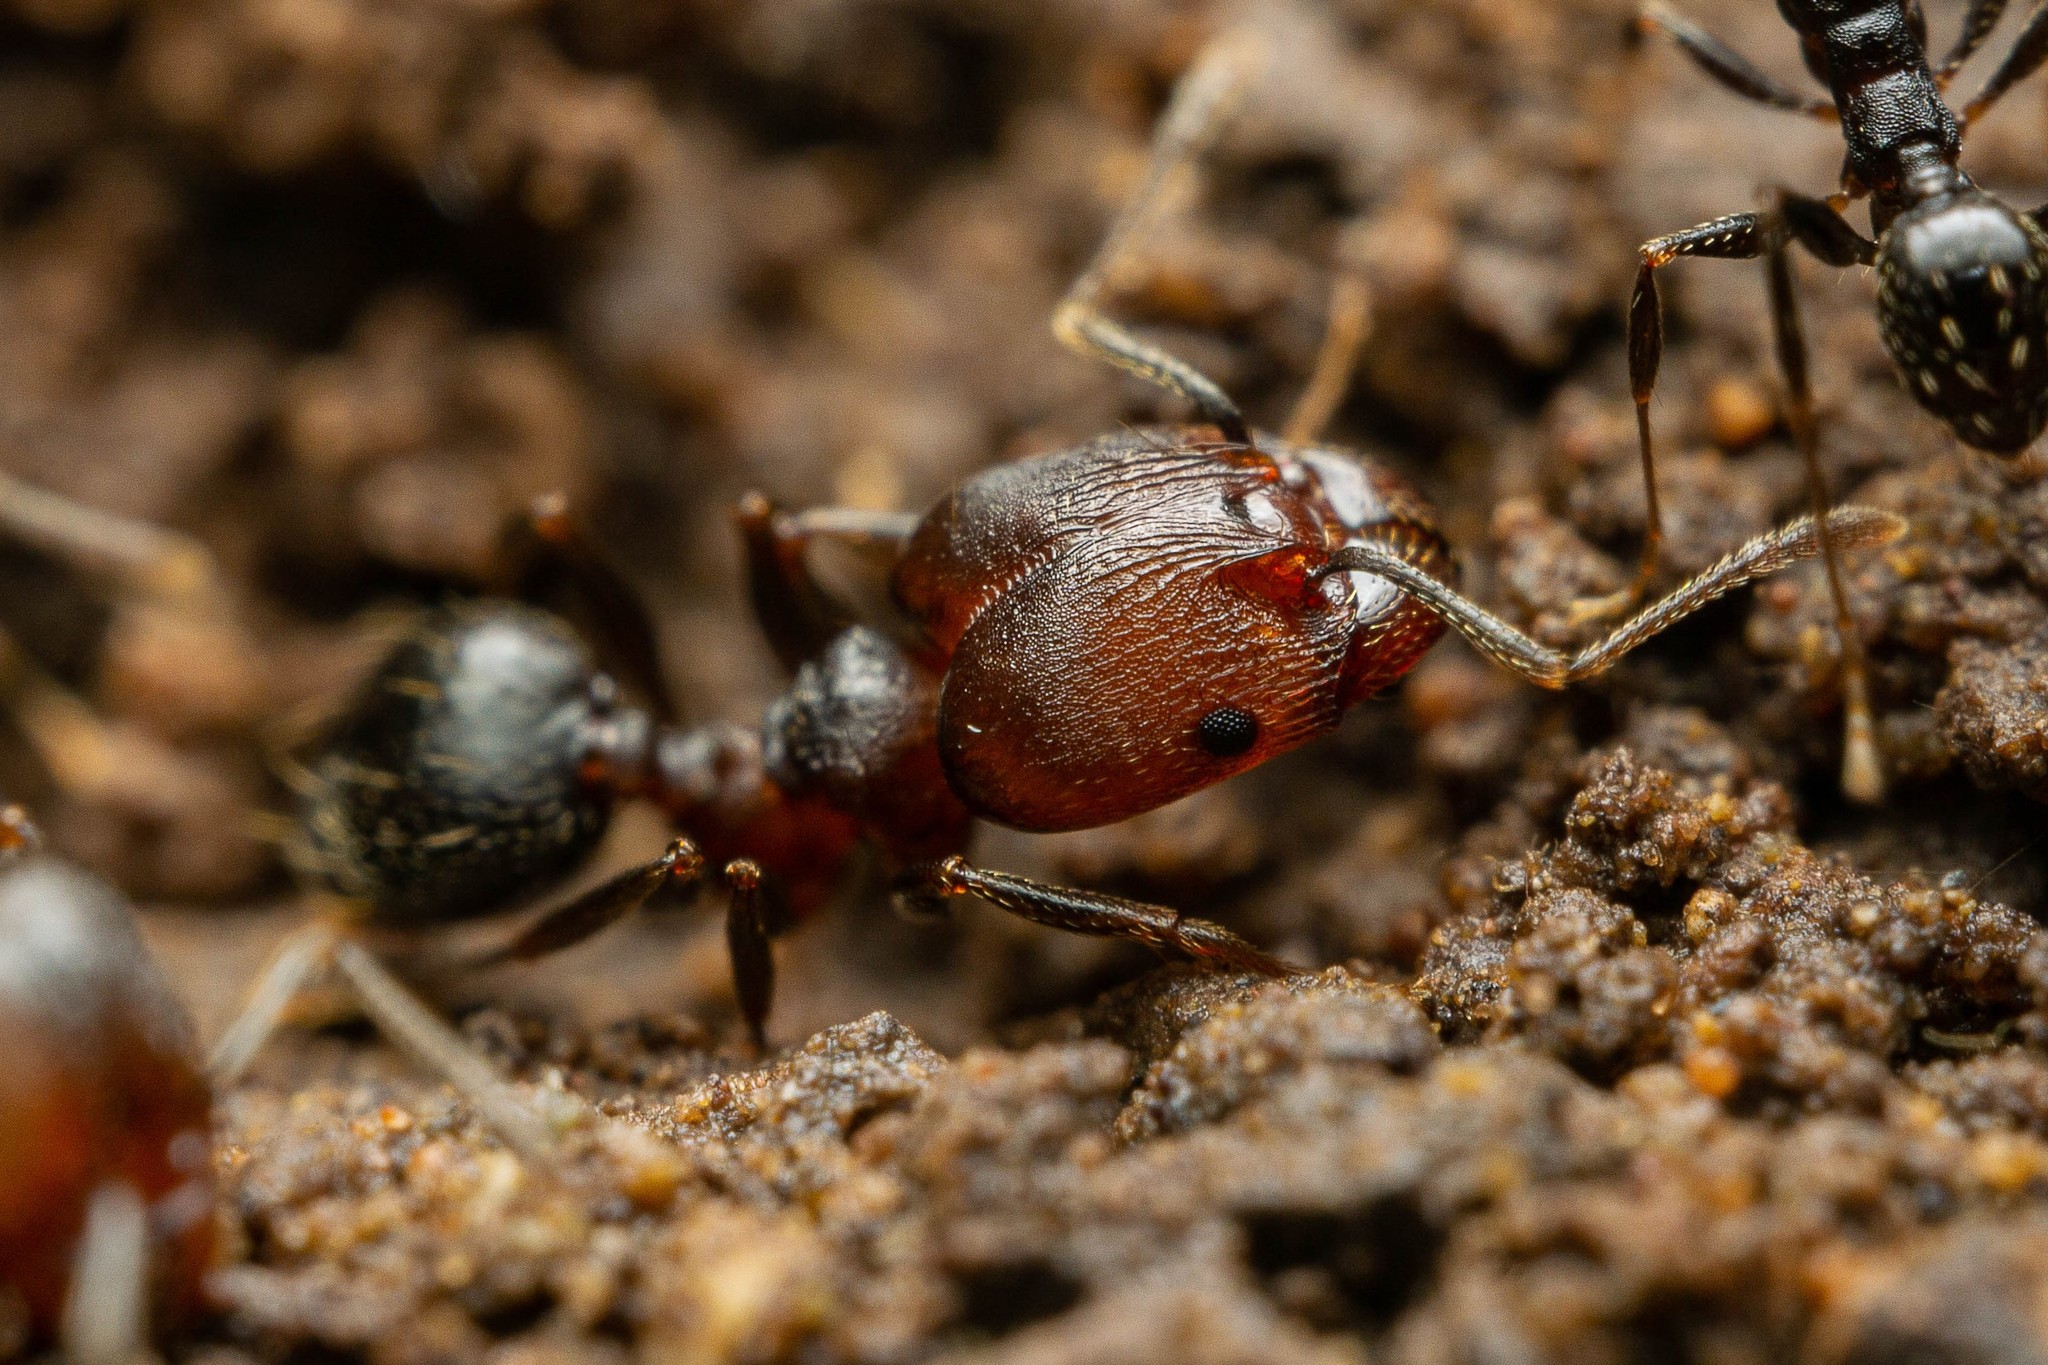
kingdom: Animalia
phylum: Arthropoda
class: Insecta
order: Hymenoptera
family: Formicidae
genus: Pheidole
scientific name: Pheidole
